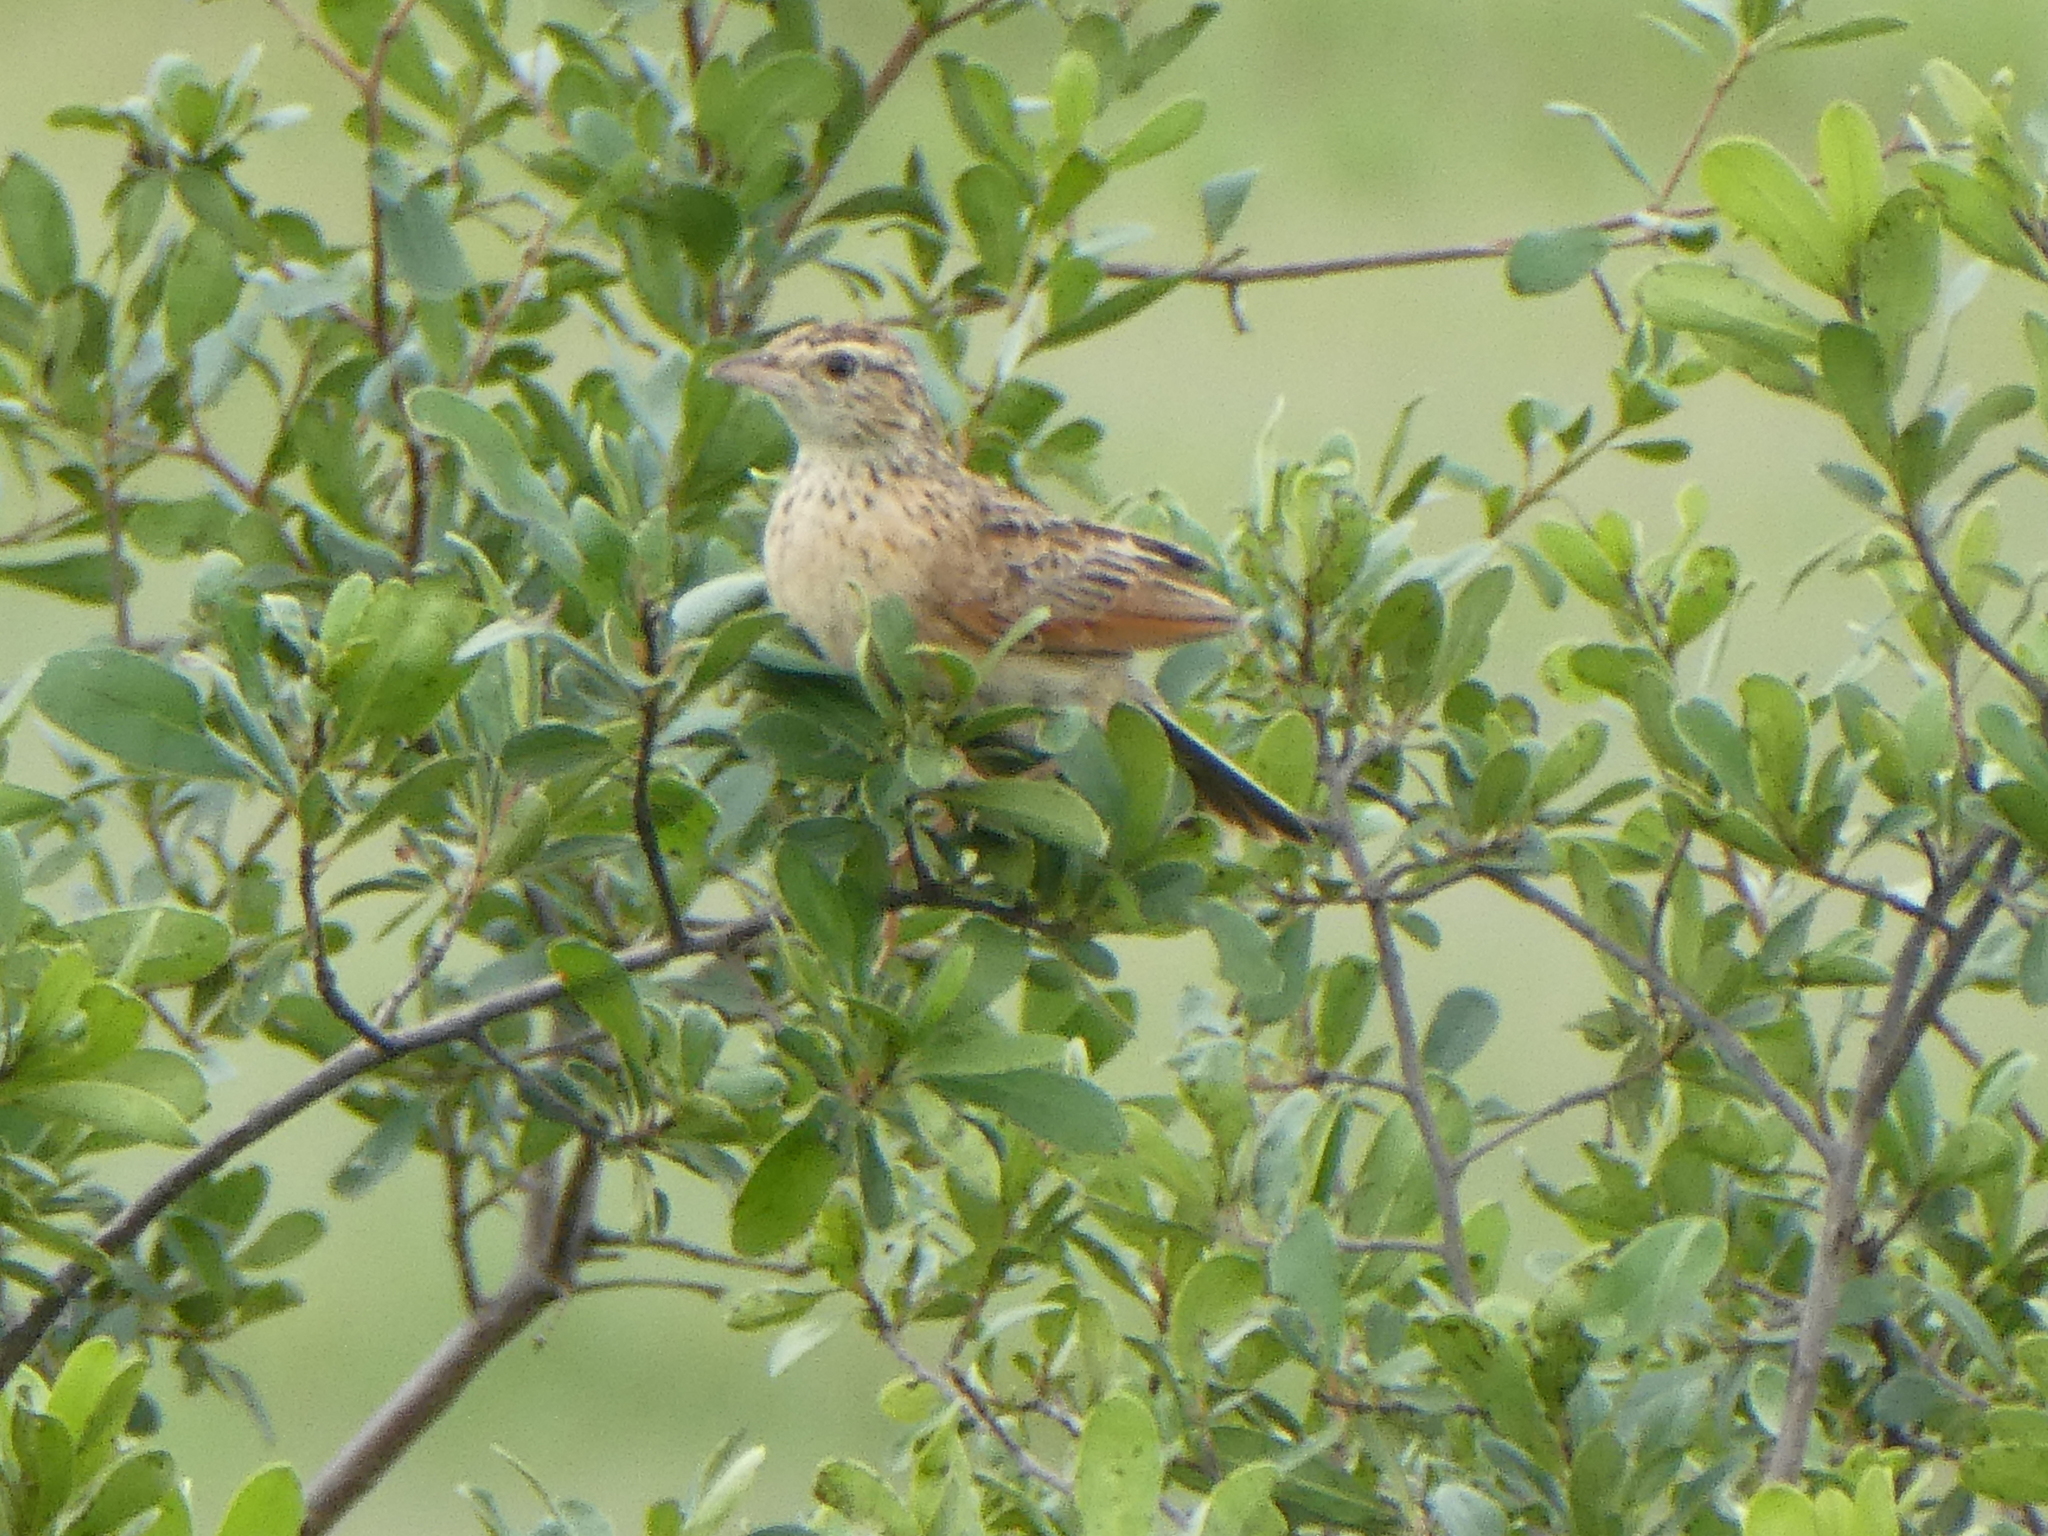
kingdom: Animalia
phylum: Chordata
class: Aves
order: Passeriformes
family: Alaudidae
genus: Mirafra
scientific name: Mirafra africana
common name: Rufous-naped lark
